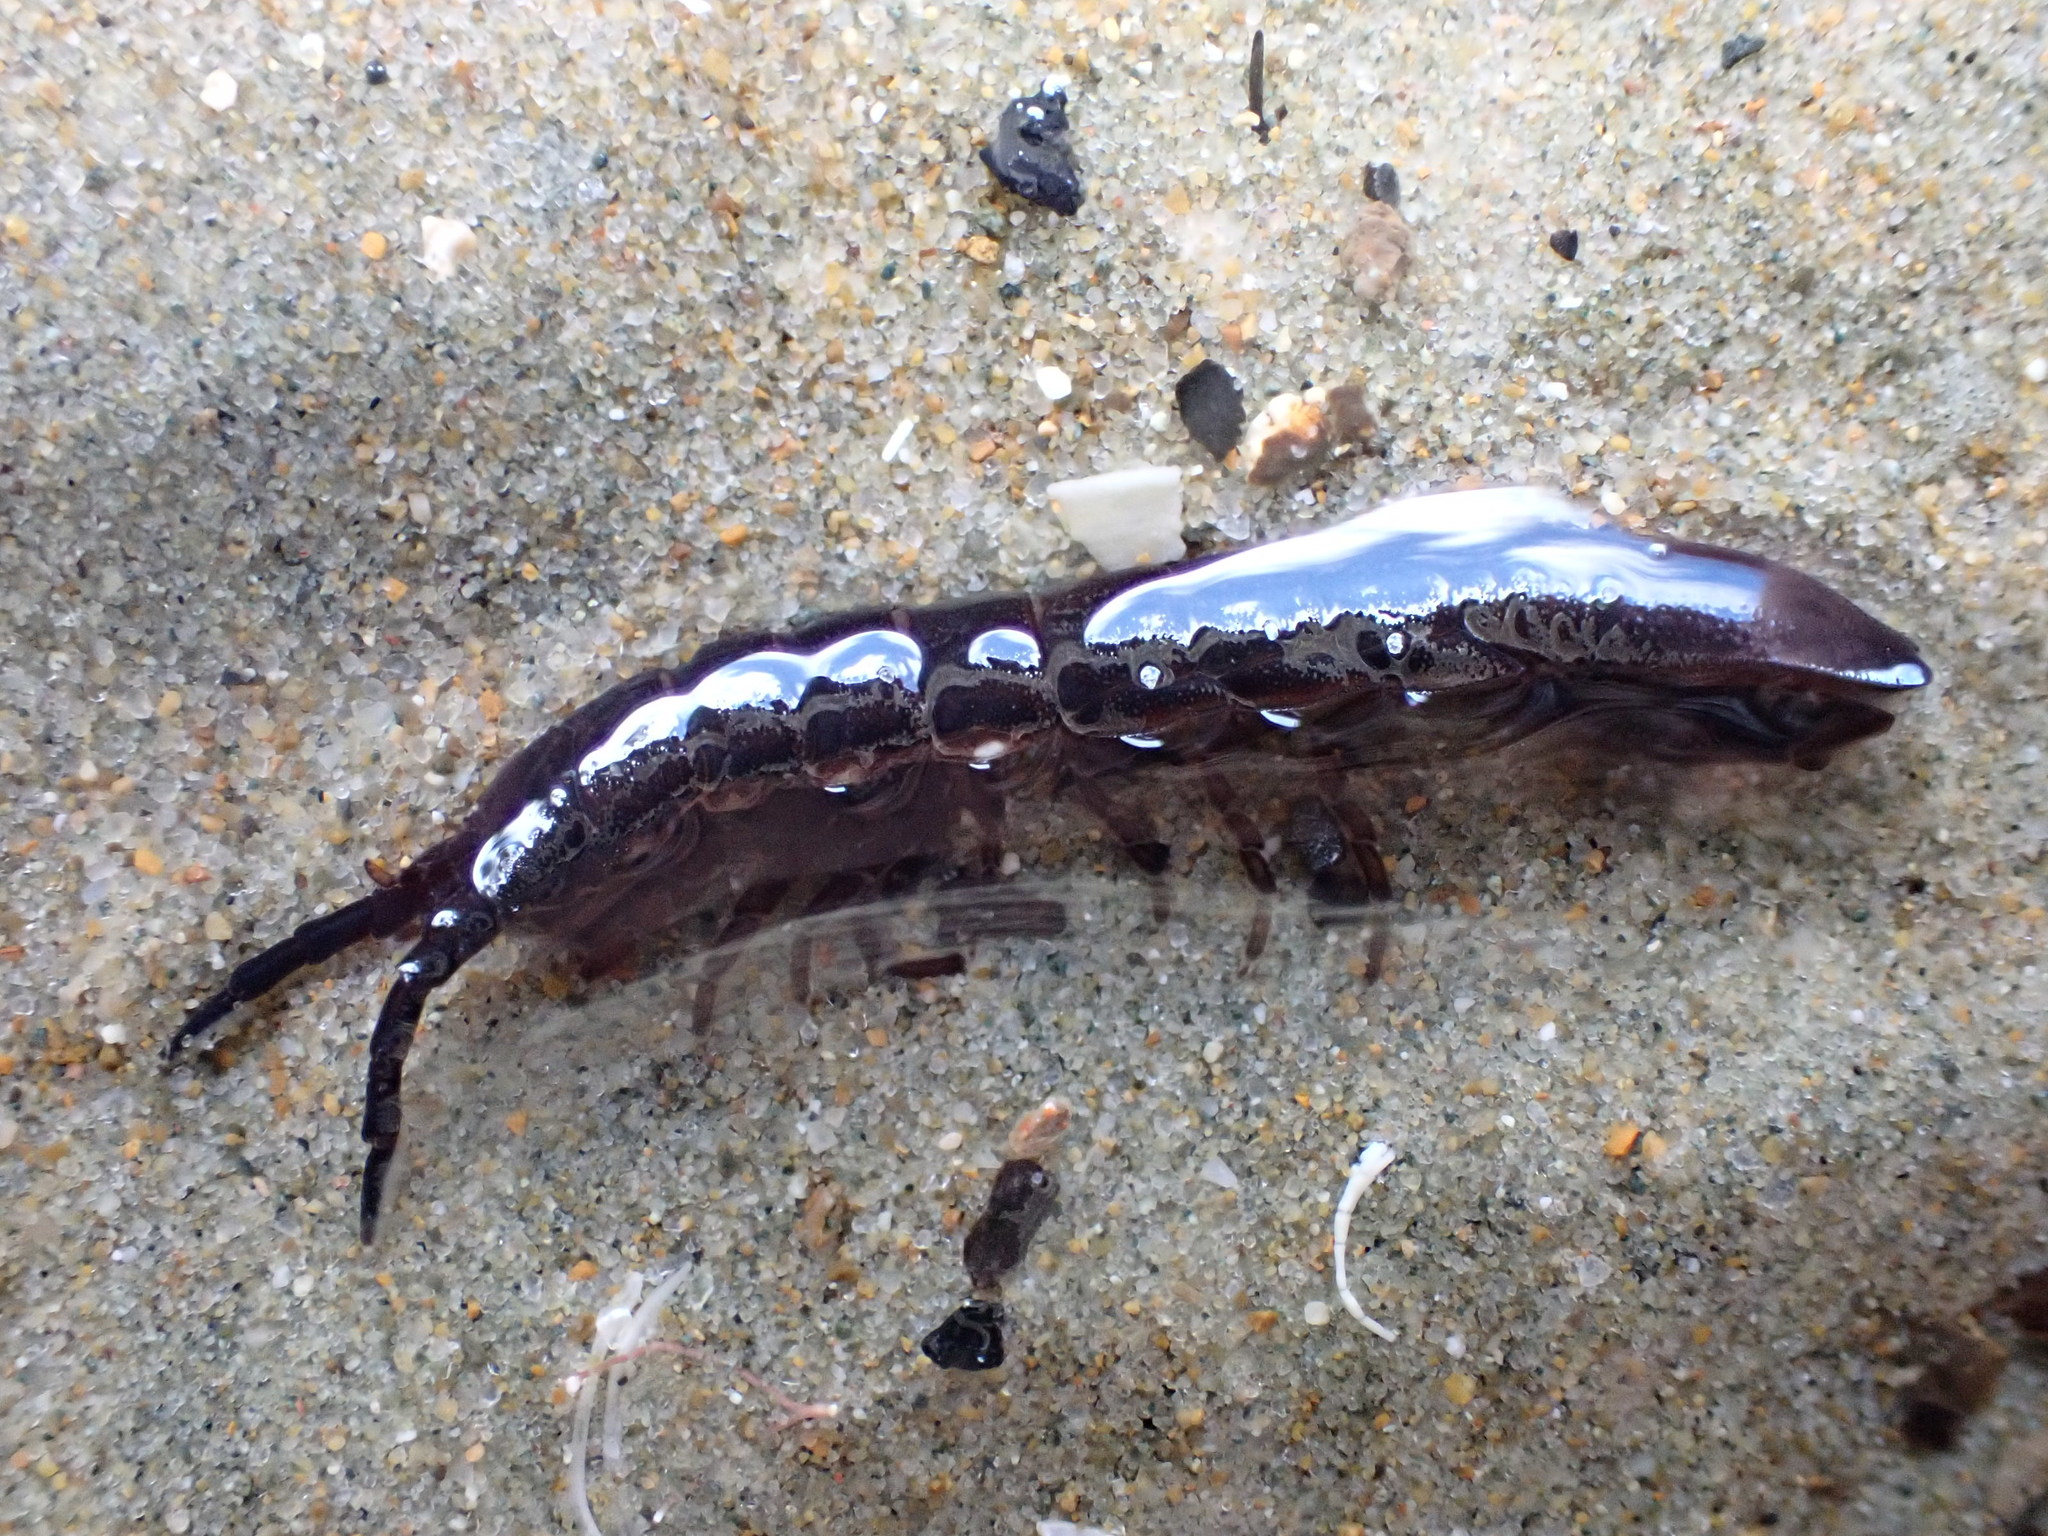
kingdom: Animalia
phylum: Arthropoda
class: Malacostraca
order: Isopoda
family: Idoteidae
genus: Batedotea
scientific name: Batedotea elongata
